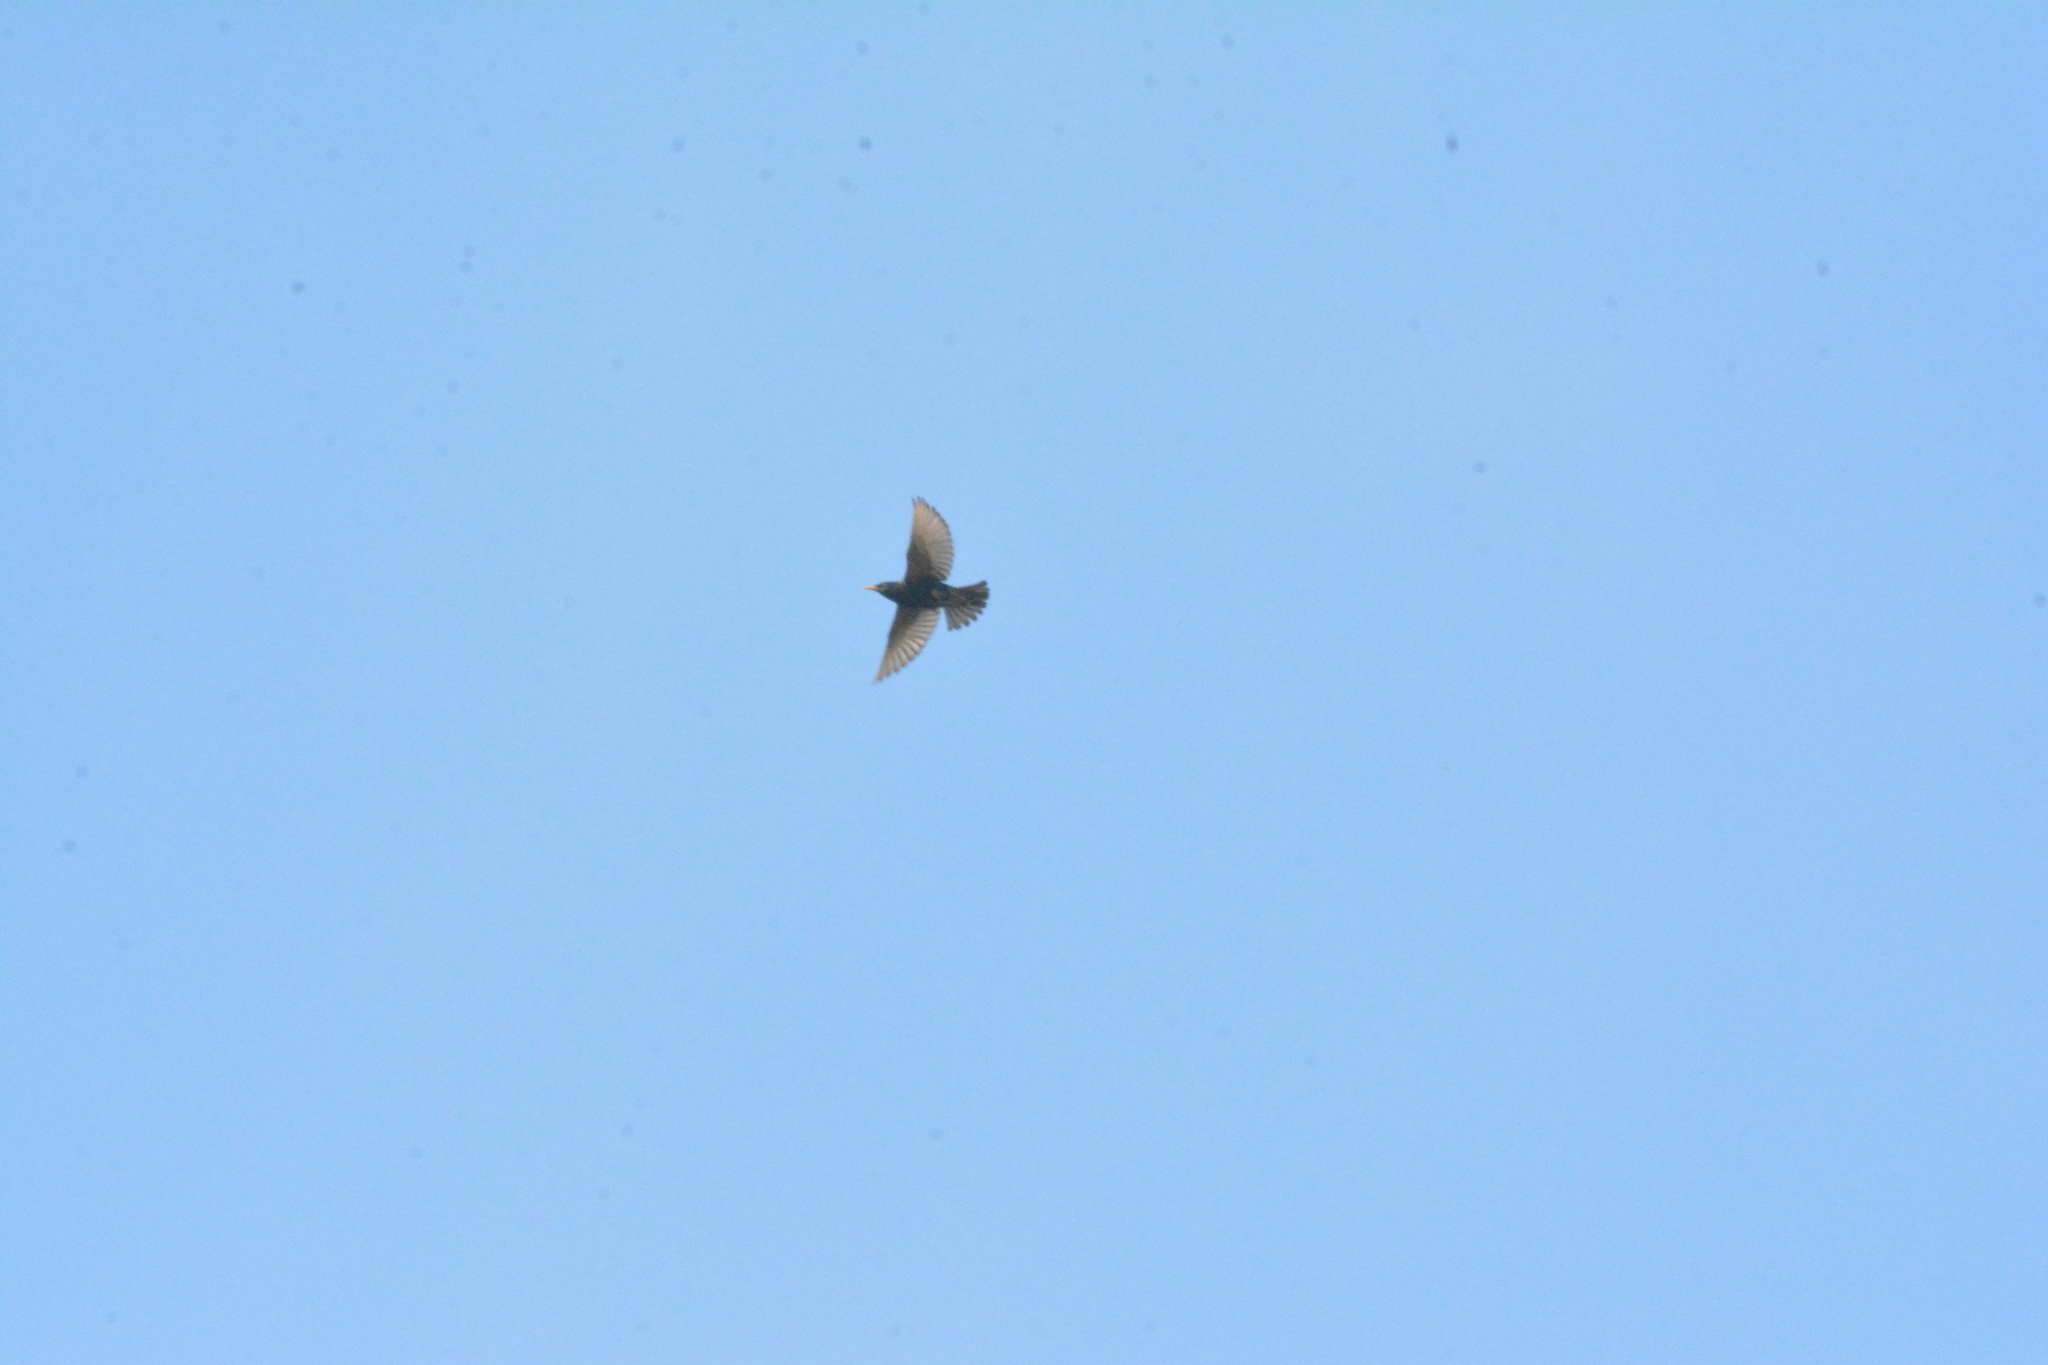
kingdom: Animalia
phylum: Chordata
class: Aves
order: Passeriformes
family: Sturnidae
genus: Sturnus
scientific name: Sturnus vulgaris
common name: Common starling
